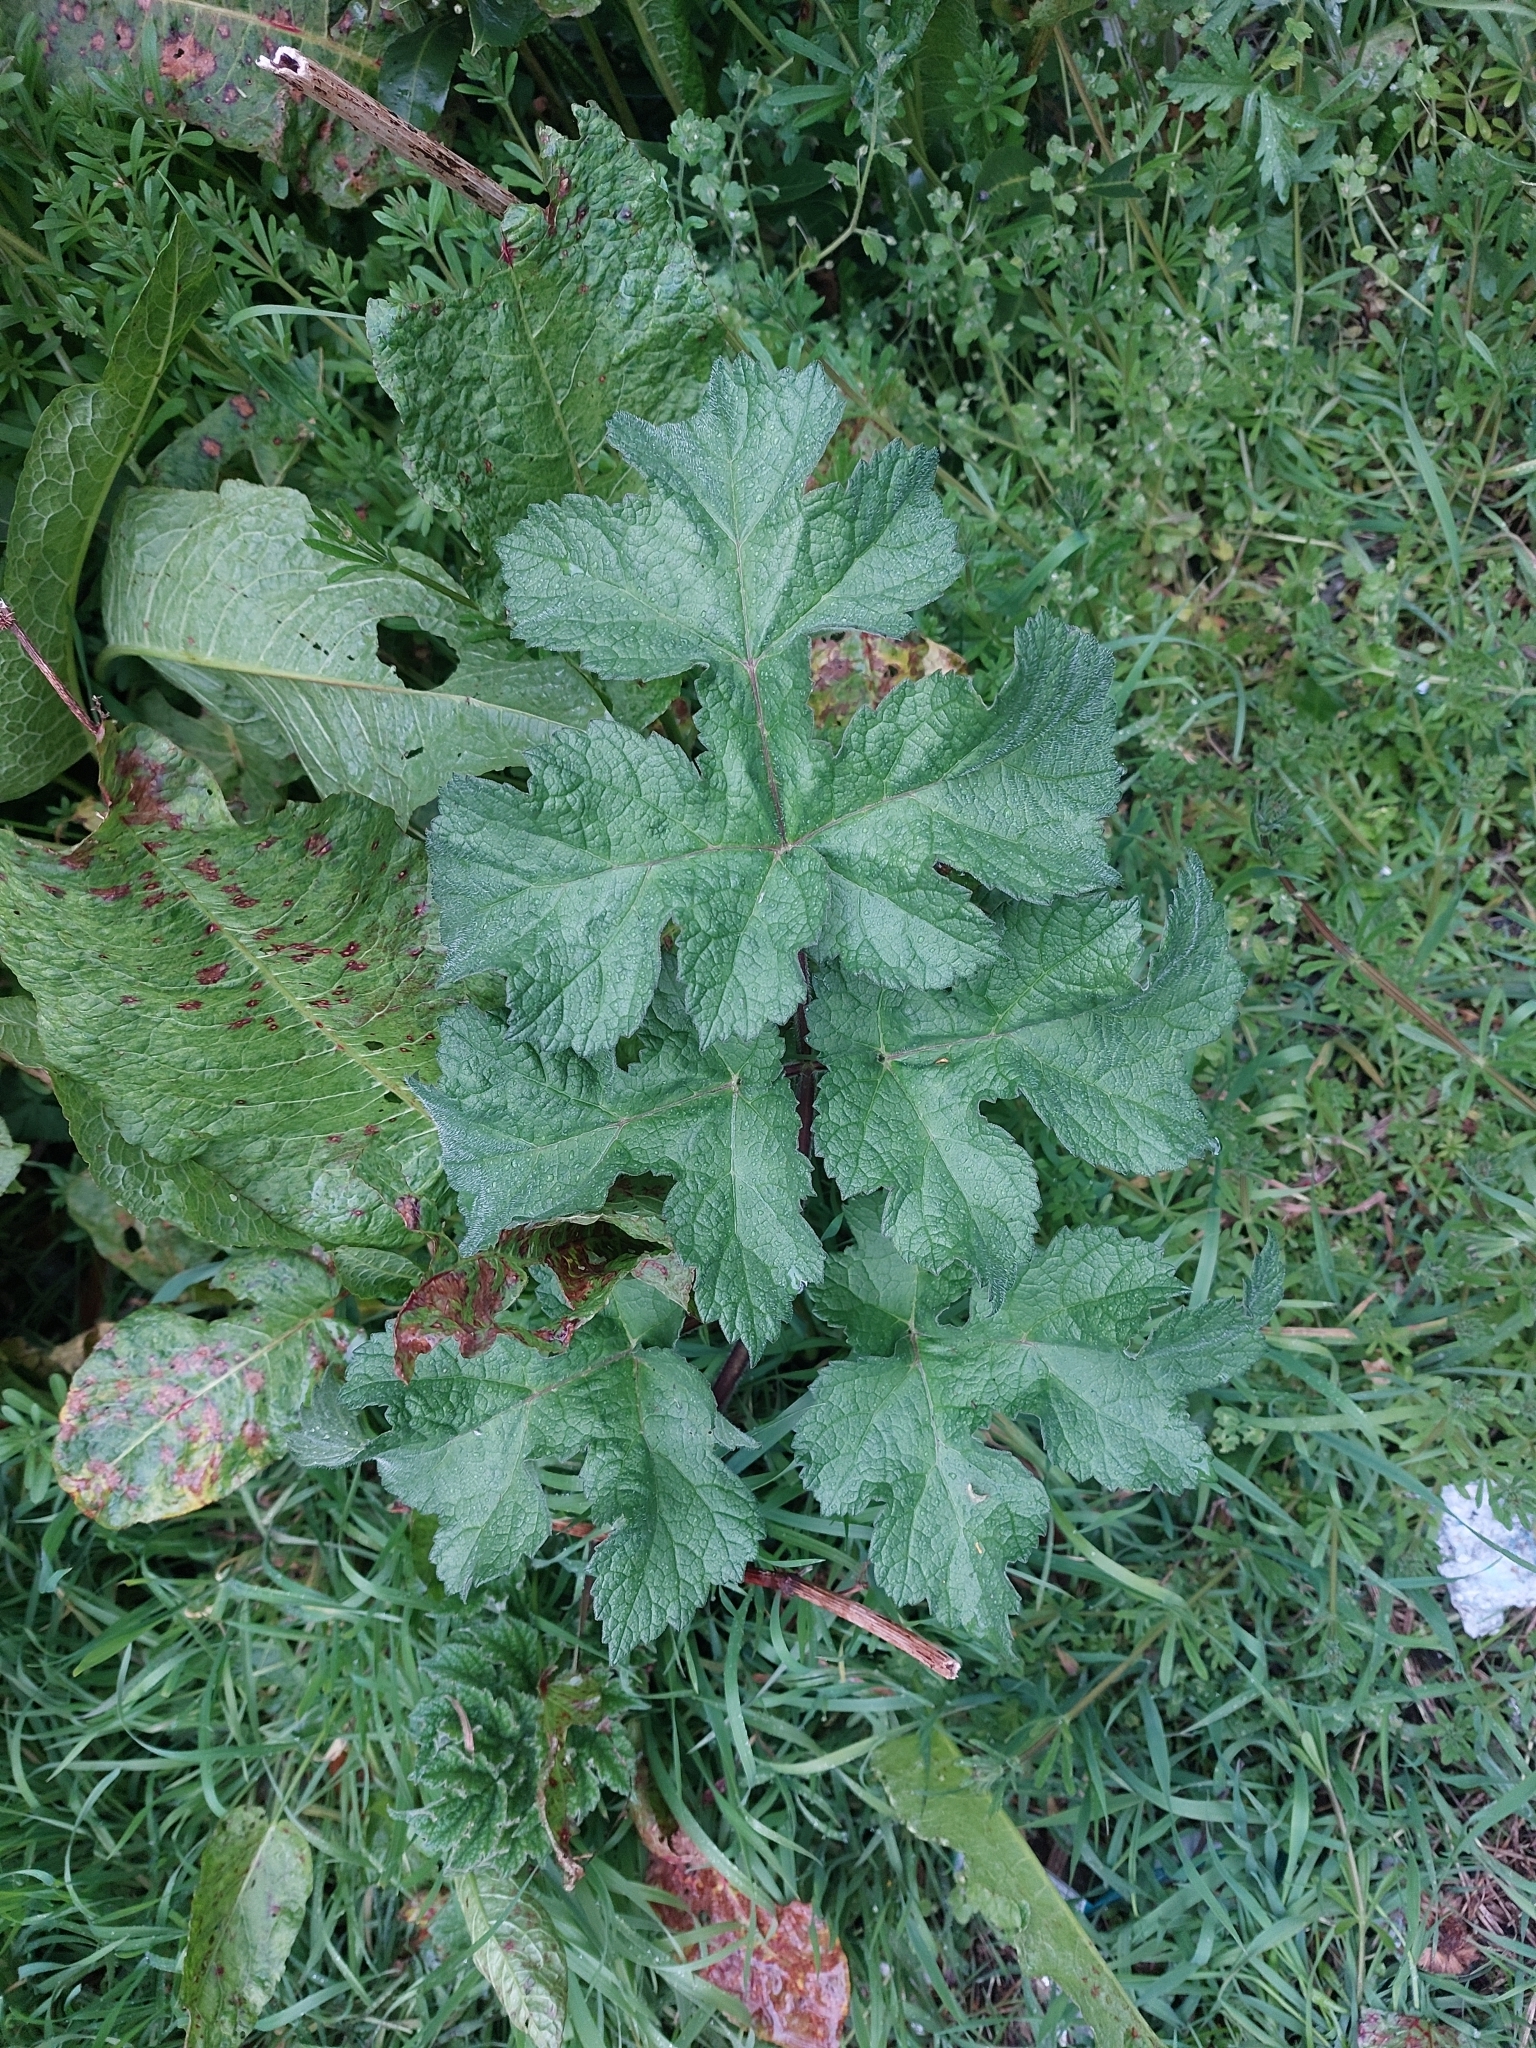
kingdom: Plantae
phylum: Tracheophyta
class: Magnoliopsida
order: Apiales
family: Apiaceae
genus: Heracleum
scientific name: Heracleum sphondylium
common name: Hogweed
